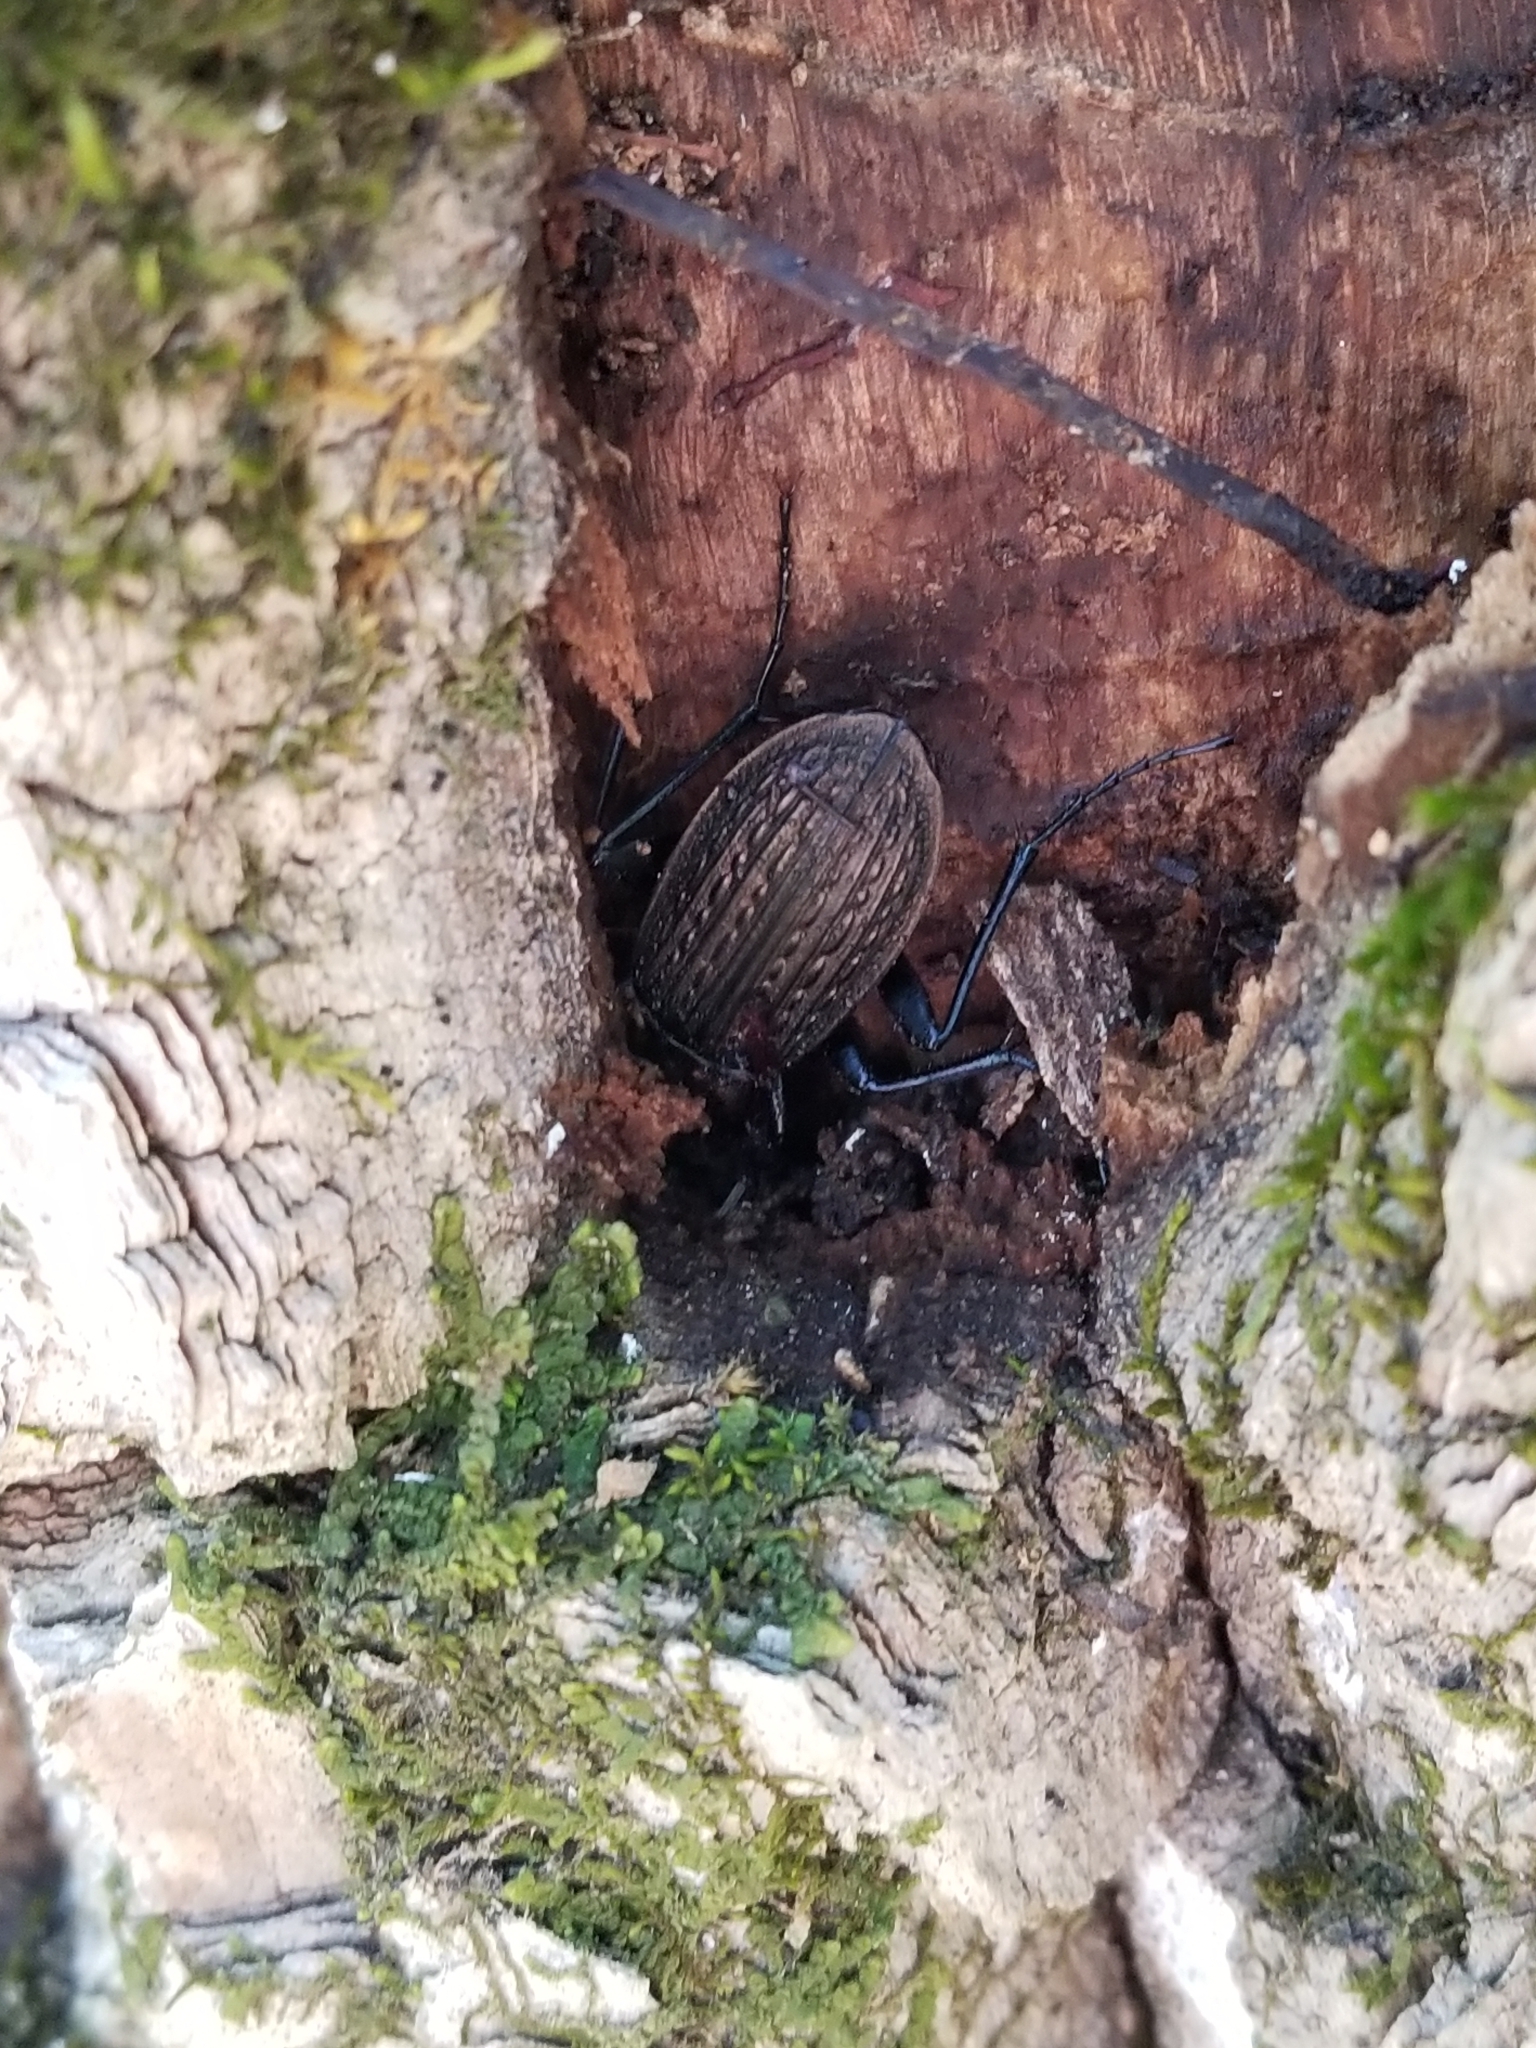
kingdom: Animalia
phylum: Arthropoda
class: Insecta
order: Coleoptera
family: Carabidae
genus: Carabus
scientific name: Carabus granulatus
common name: Granulate ground beetle
